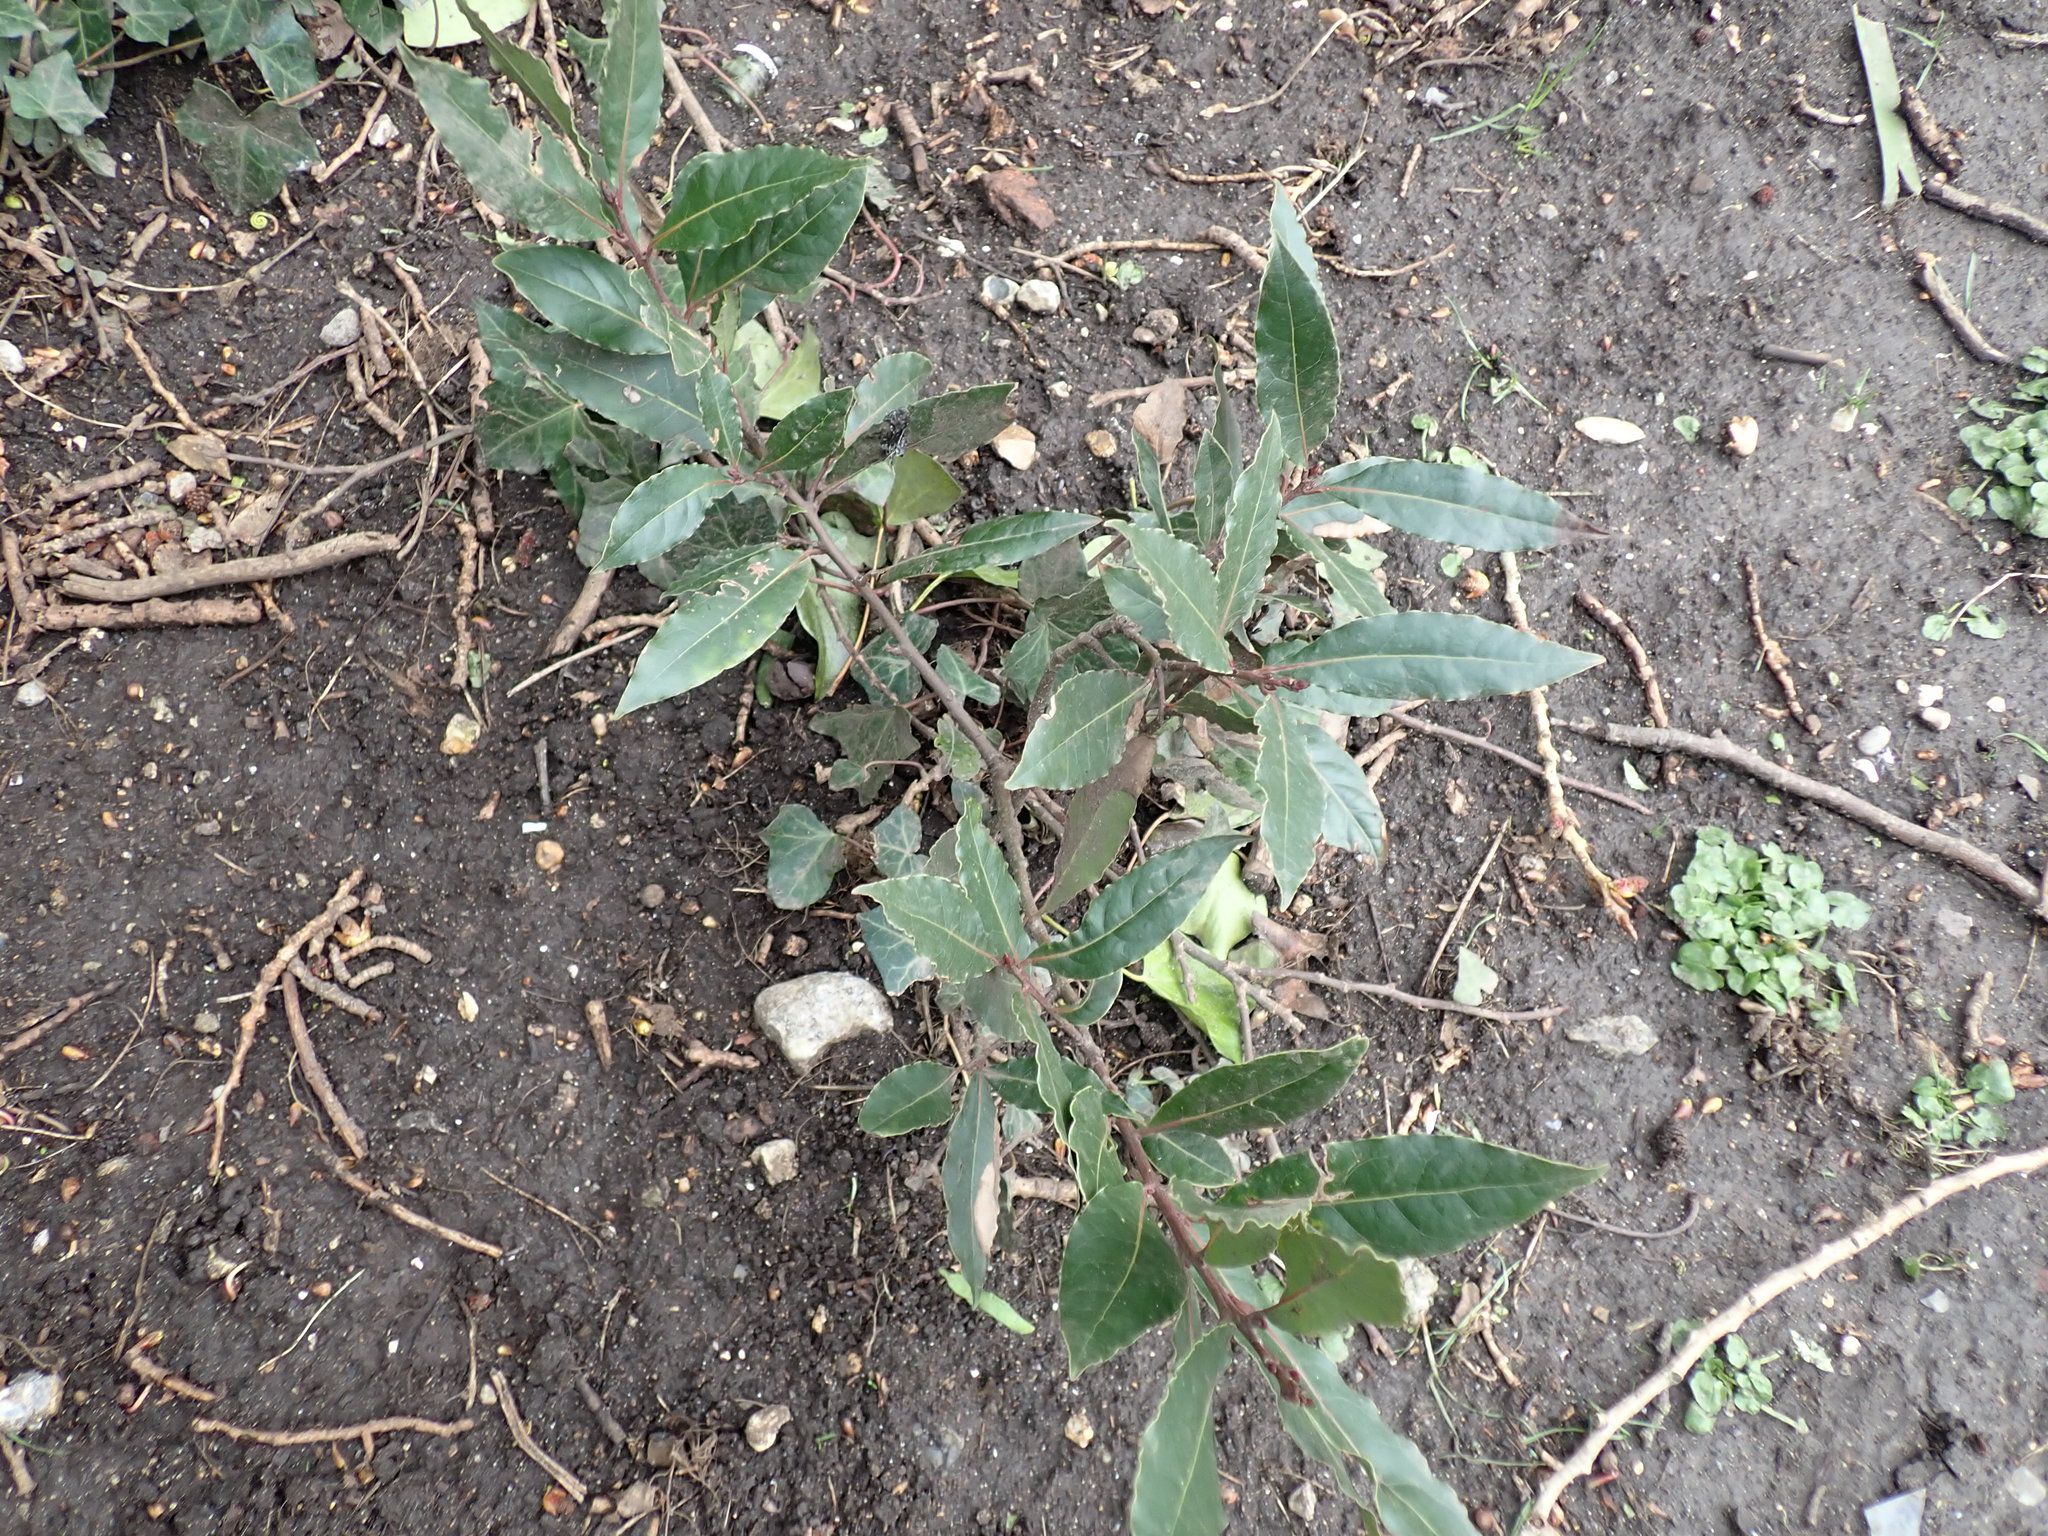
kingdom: Plantae
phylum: Tracheophyta
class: Magnoliopsida
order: Laurales
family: Lauraceae
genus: Laurus
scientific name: Laurus nobilis
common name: Bay
